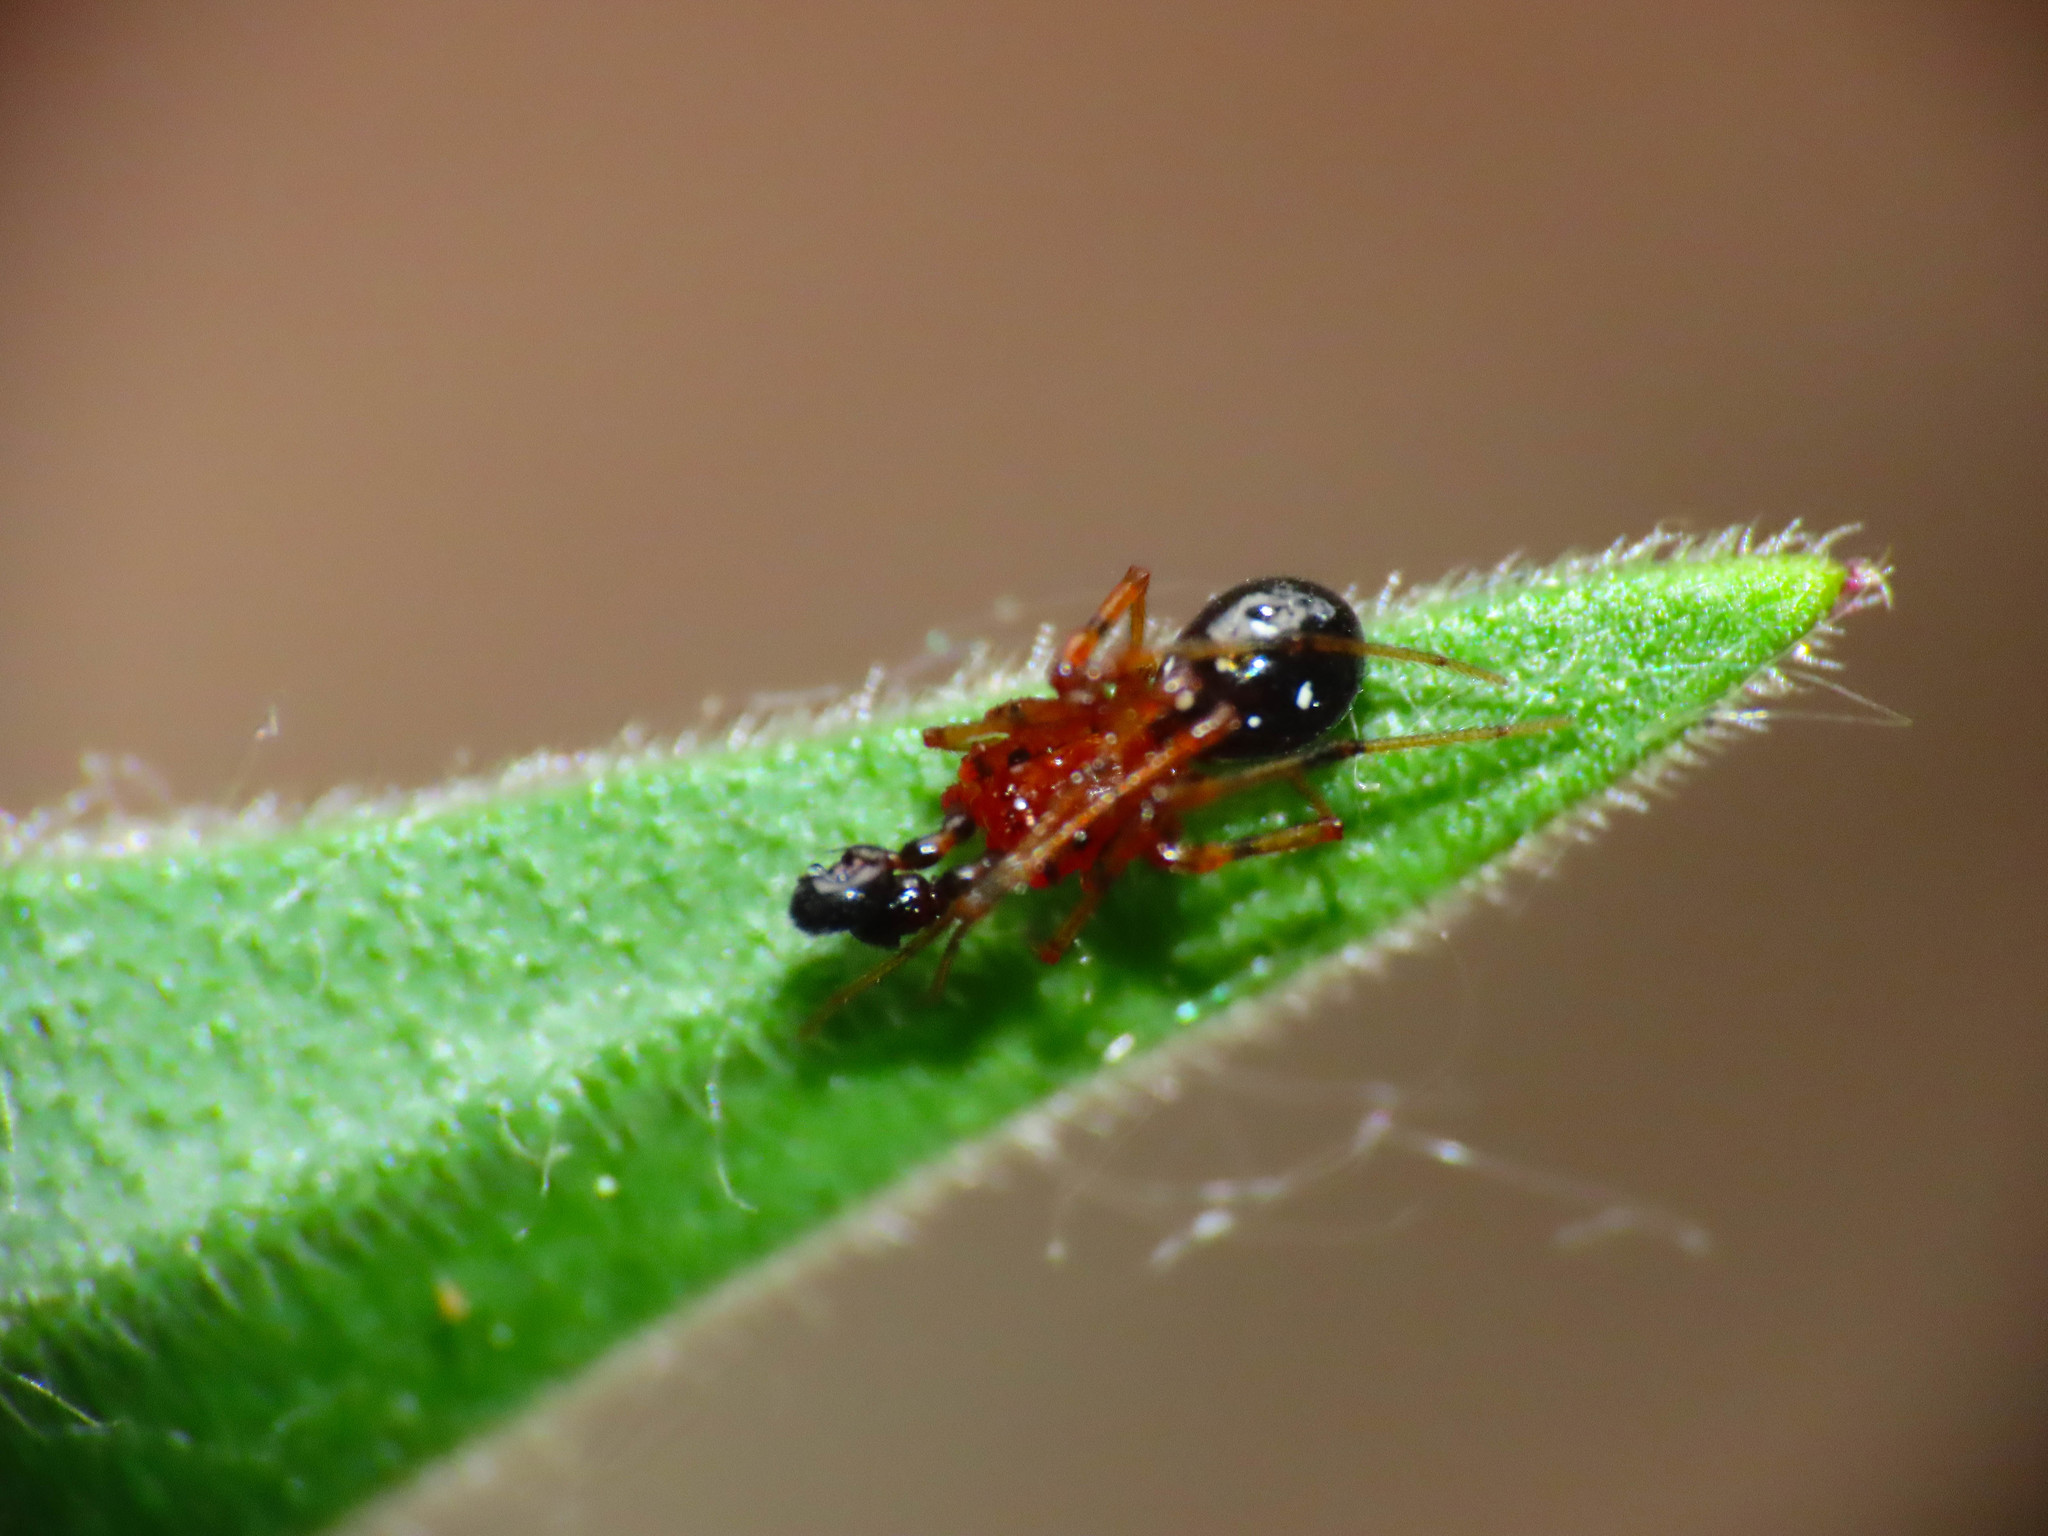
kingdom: Animalia
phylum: Arthropoda
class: Arachnida
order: Araneae
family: Theridiidae
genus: Neottiura
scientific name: Neottiura herbigrada
